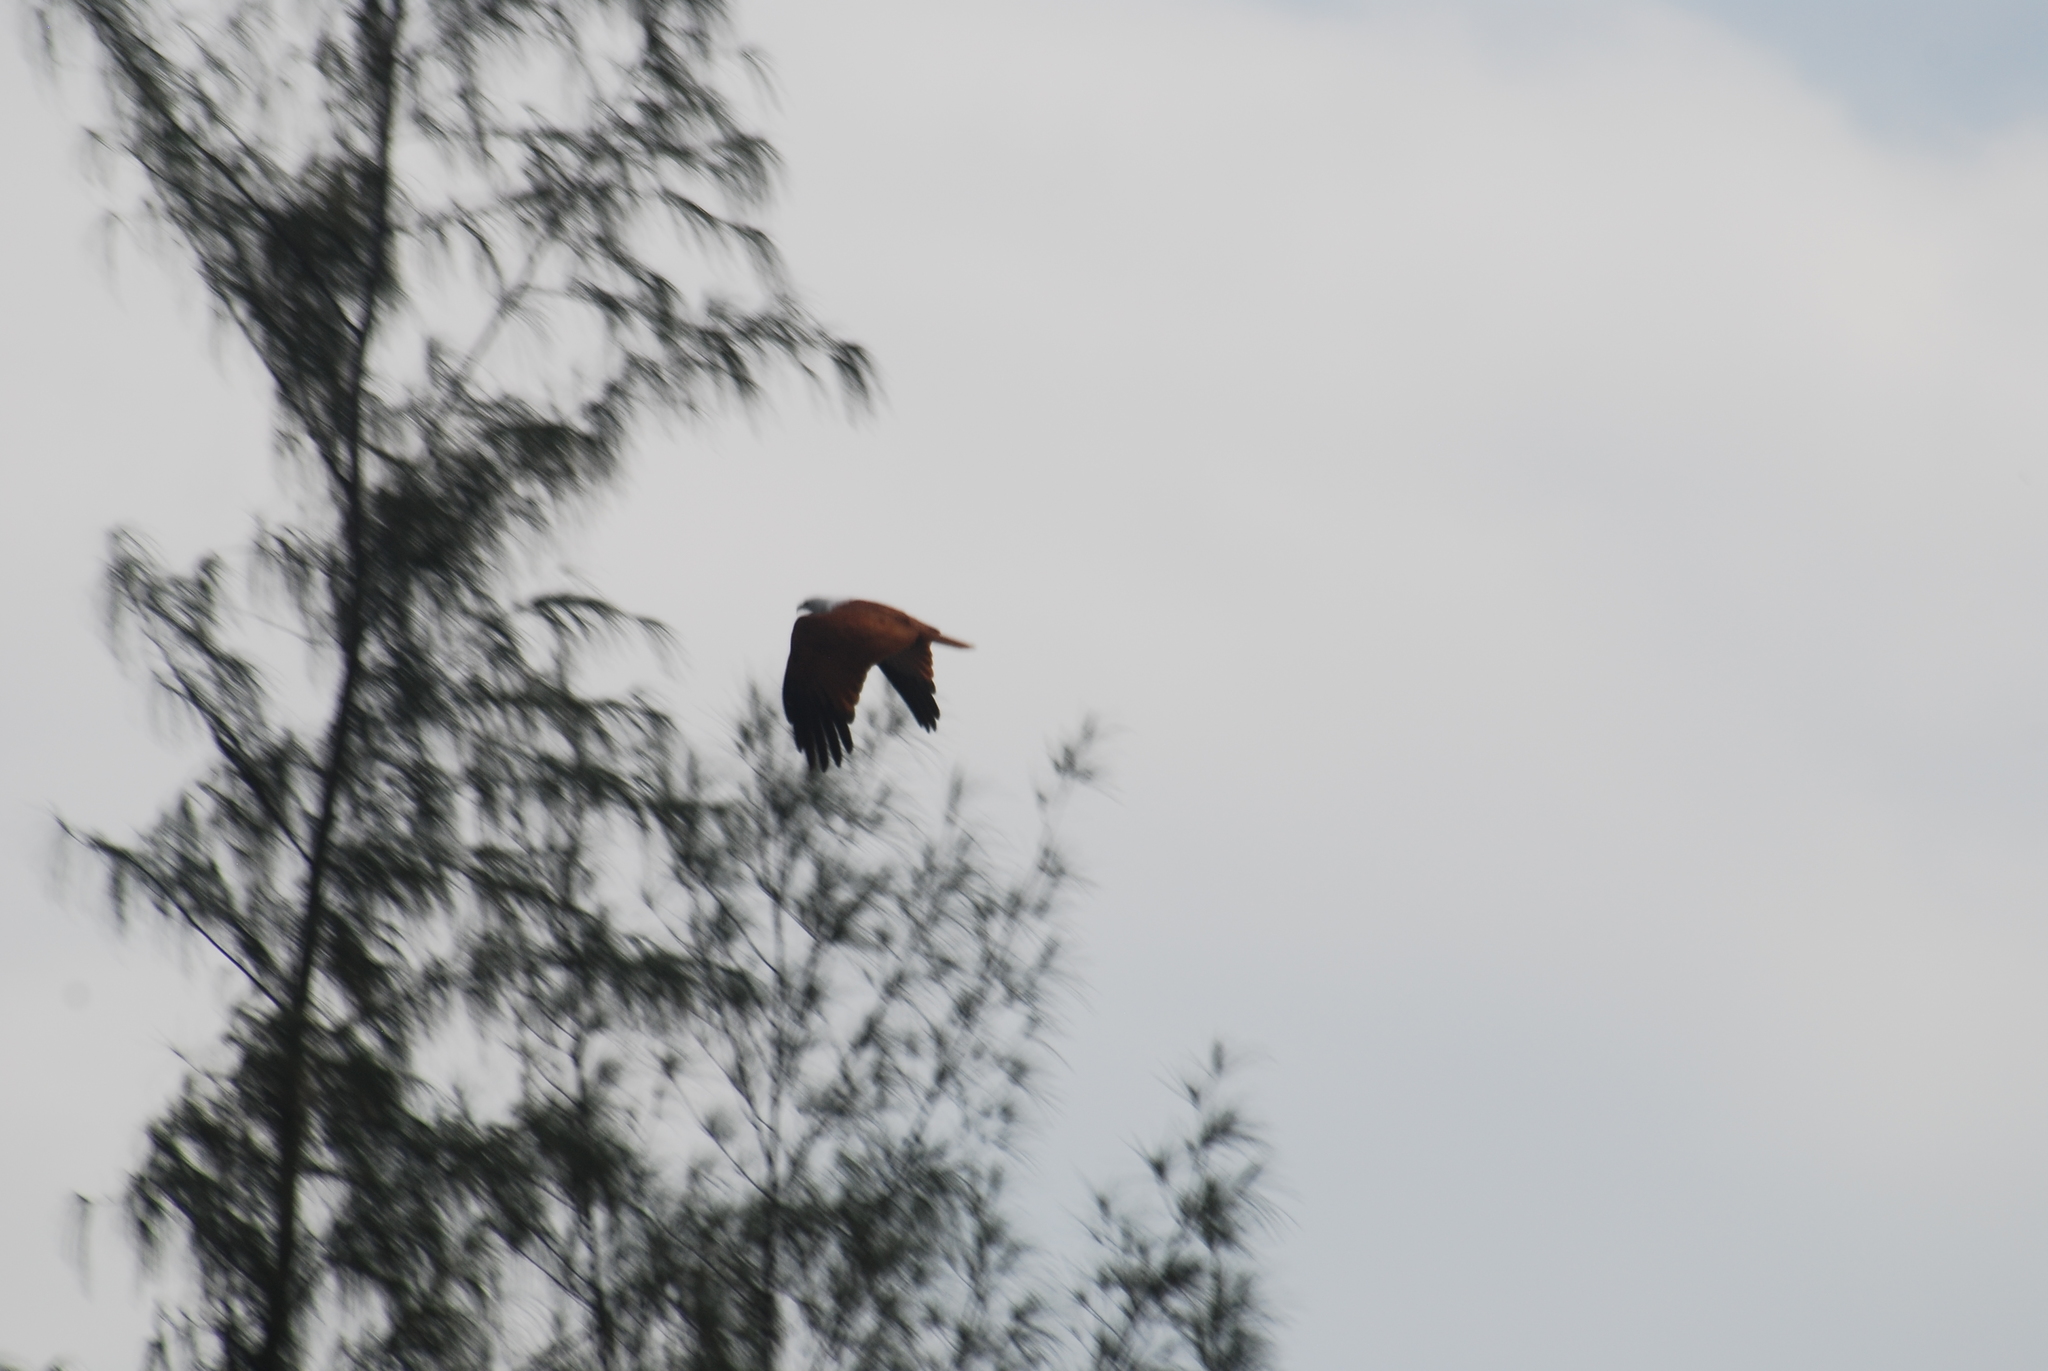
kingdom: Animalia
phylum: Chordata
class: Aves
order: Accipitriformes
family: Accipitridae
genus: Haliastur
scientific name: Haliastur indus
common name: Brahminy kite
